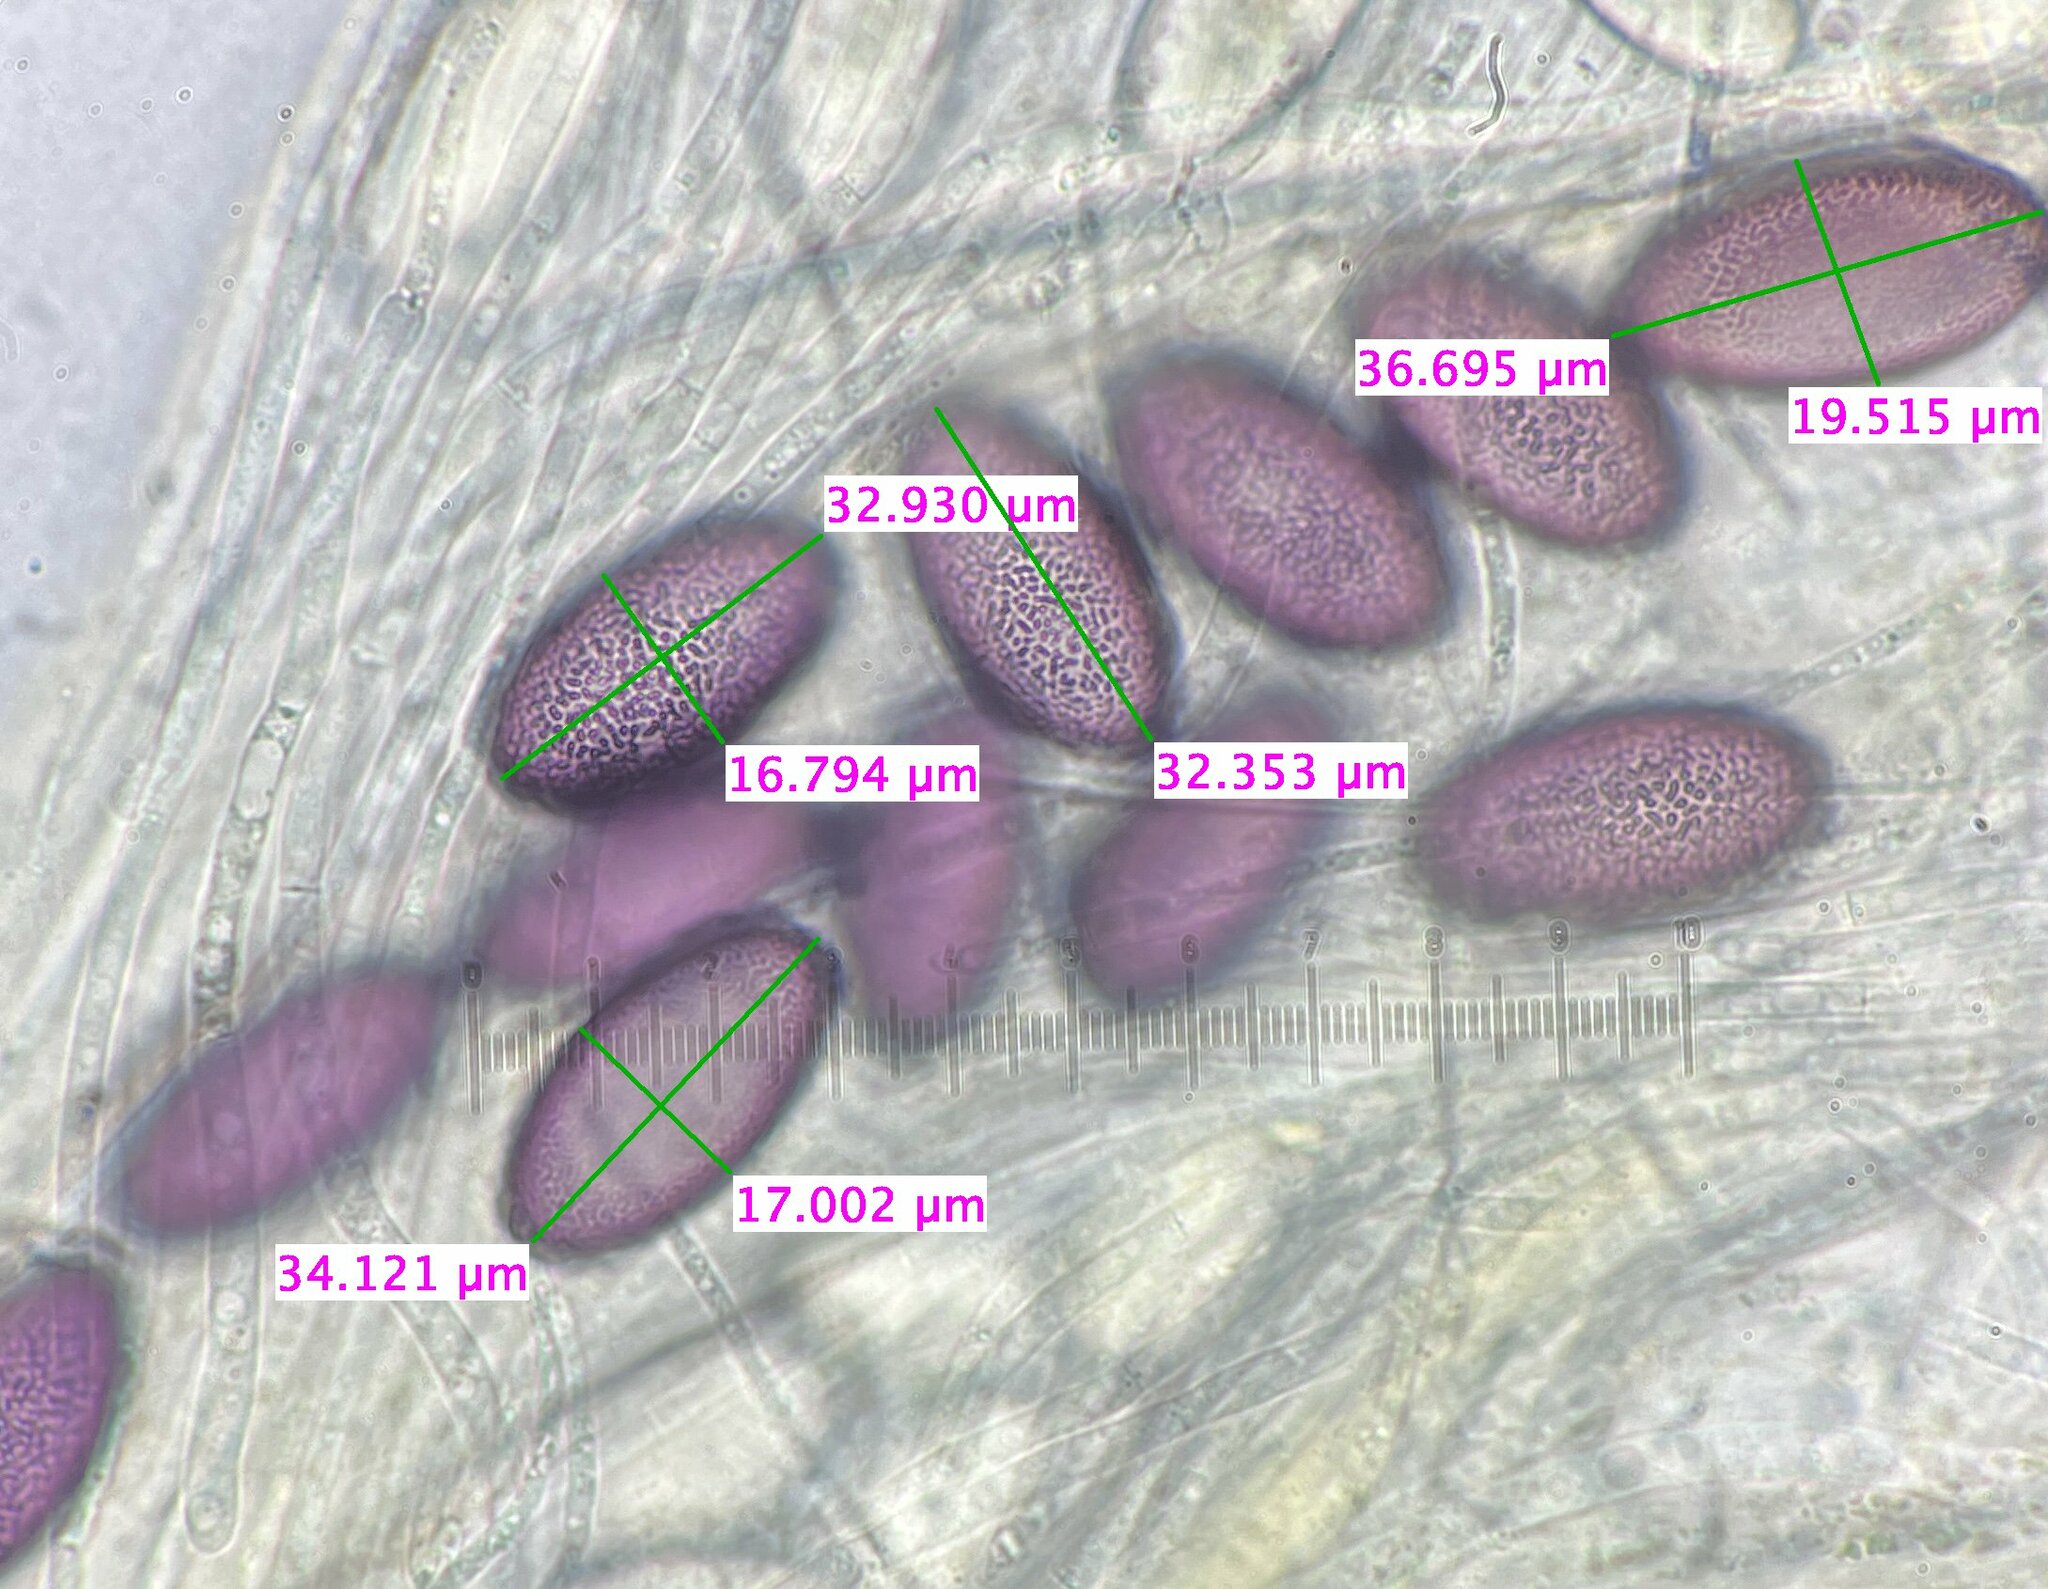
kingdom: Fungi
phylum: Ascomycota
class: Pezizomycetes
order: Pezizales
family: Ascobolaceae
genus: Ascobolus
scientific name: Ascobolus americanus
